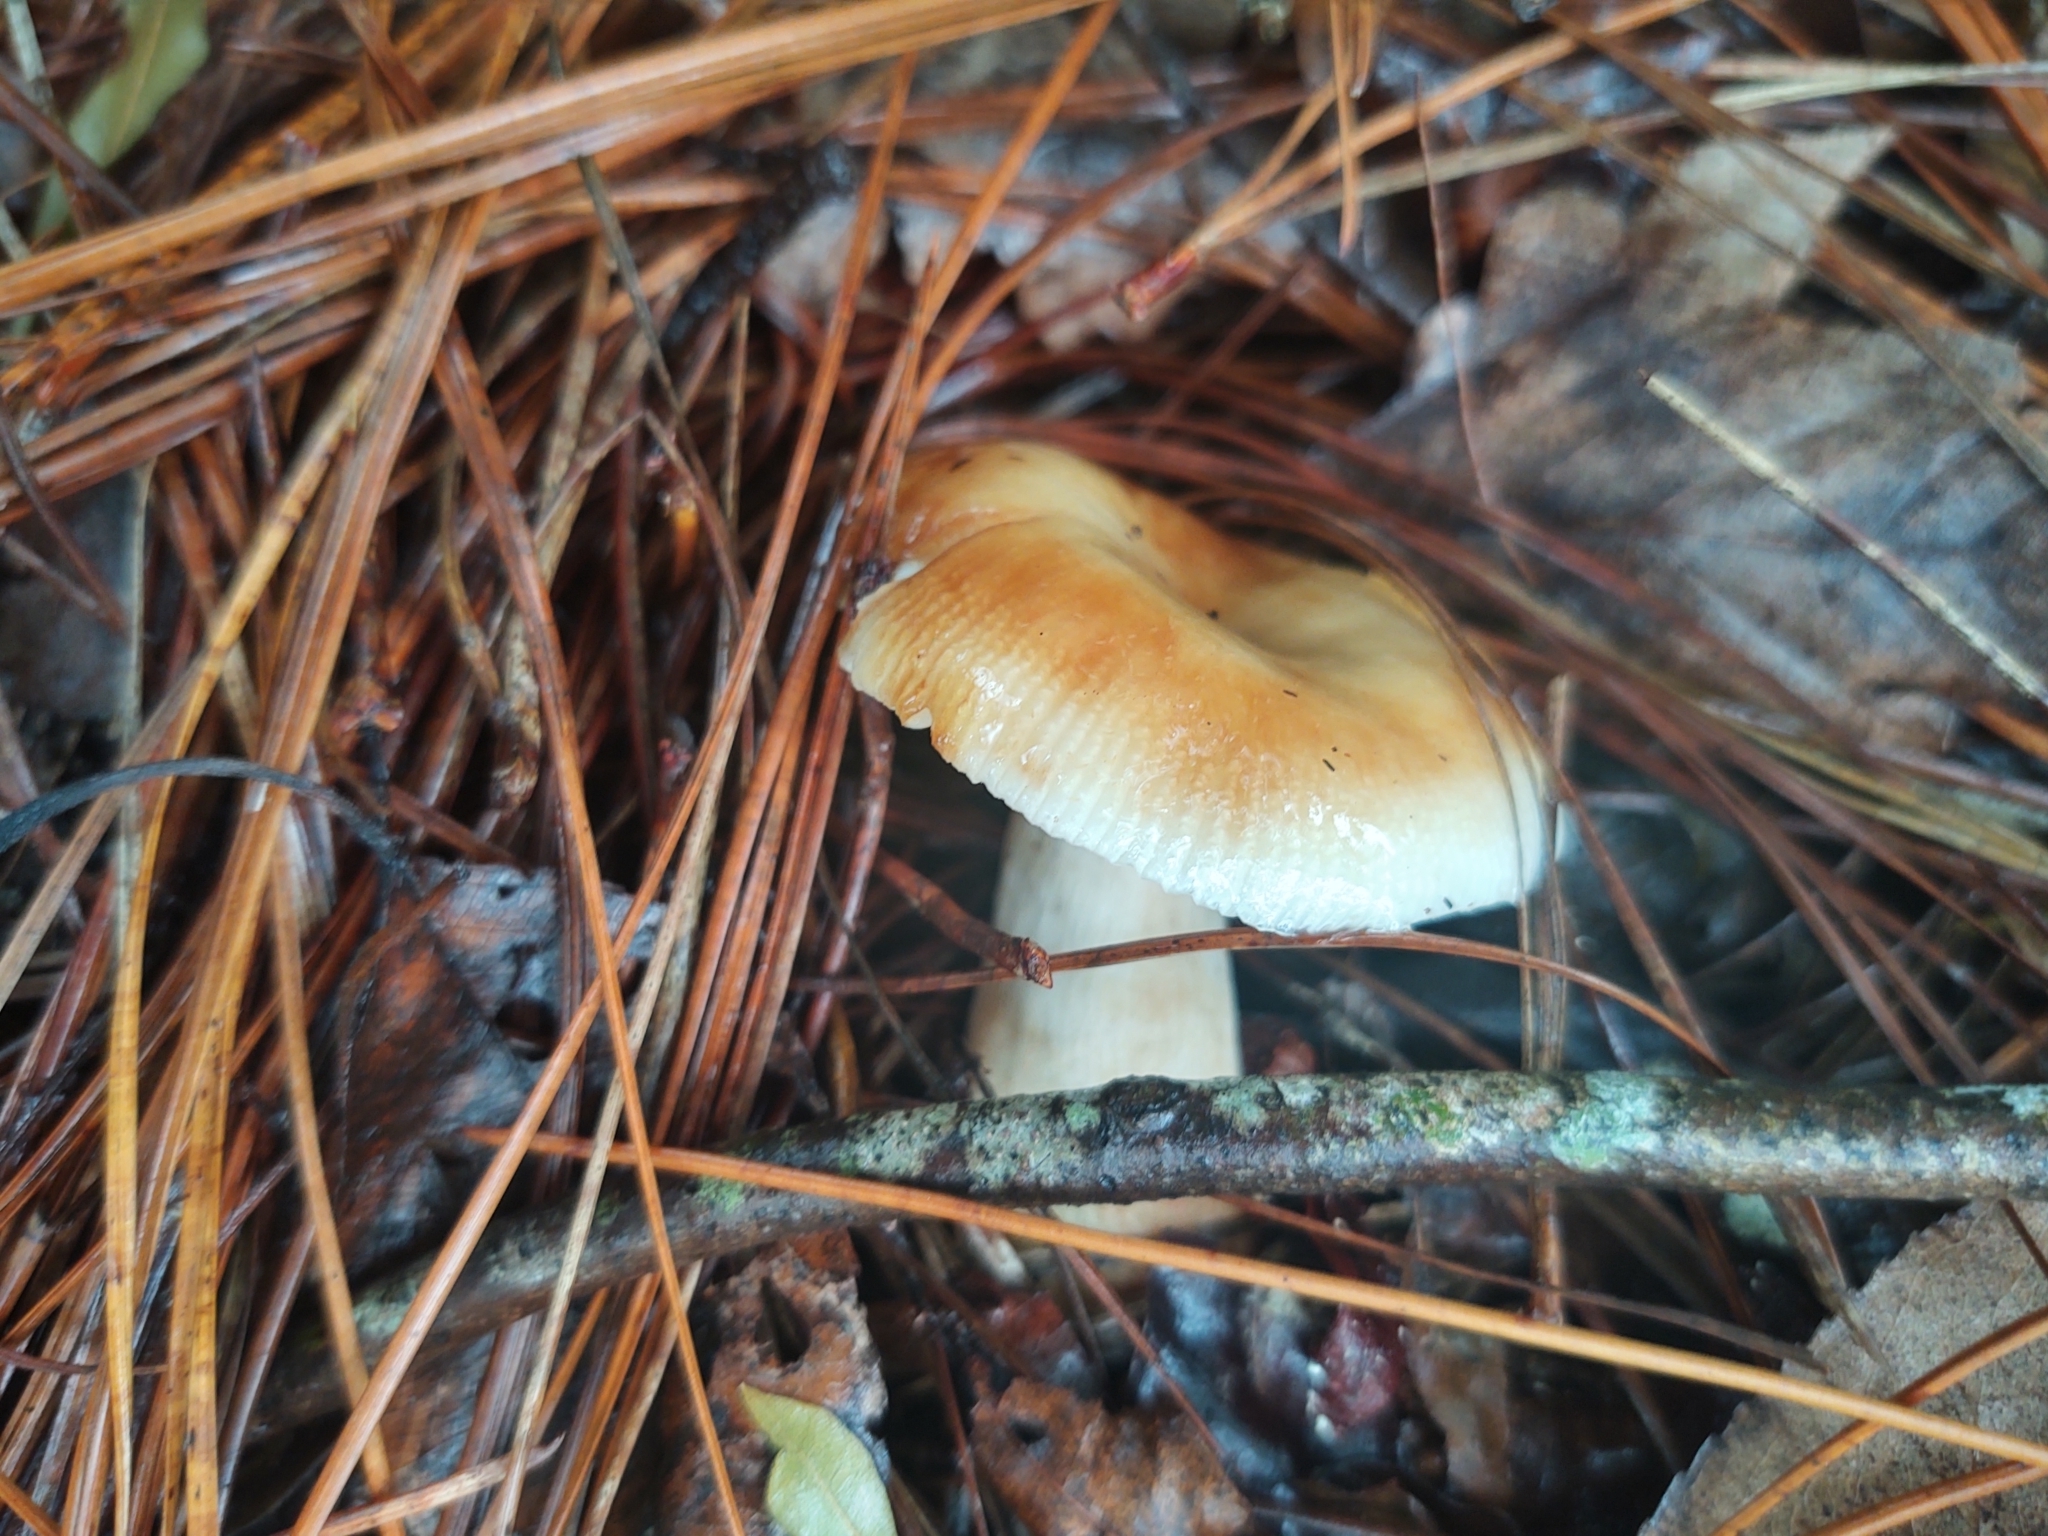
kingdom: Fungi
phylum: Basidiomycota
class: Agaricomycetes
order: Russulales
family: Russulaceae
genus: Russula
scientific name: Russula amoenolens
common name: Camembert brittlegill
